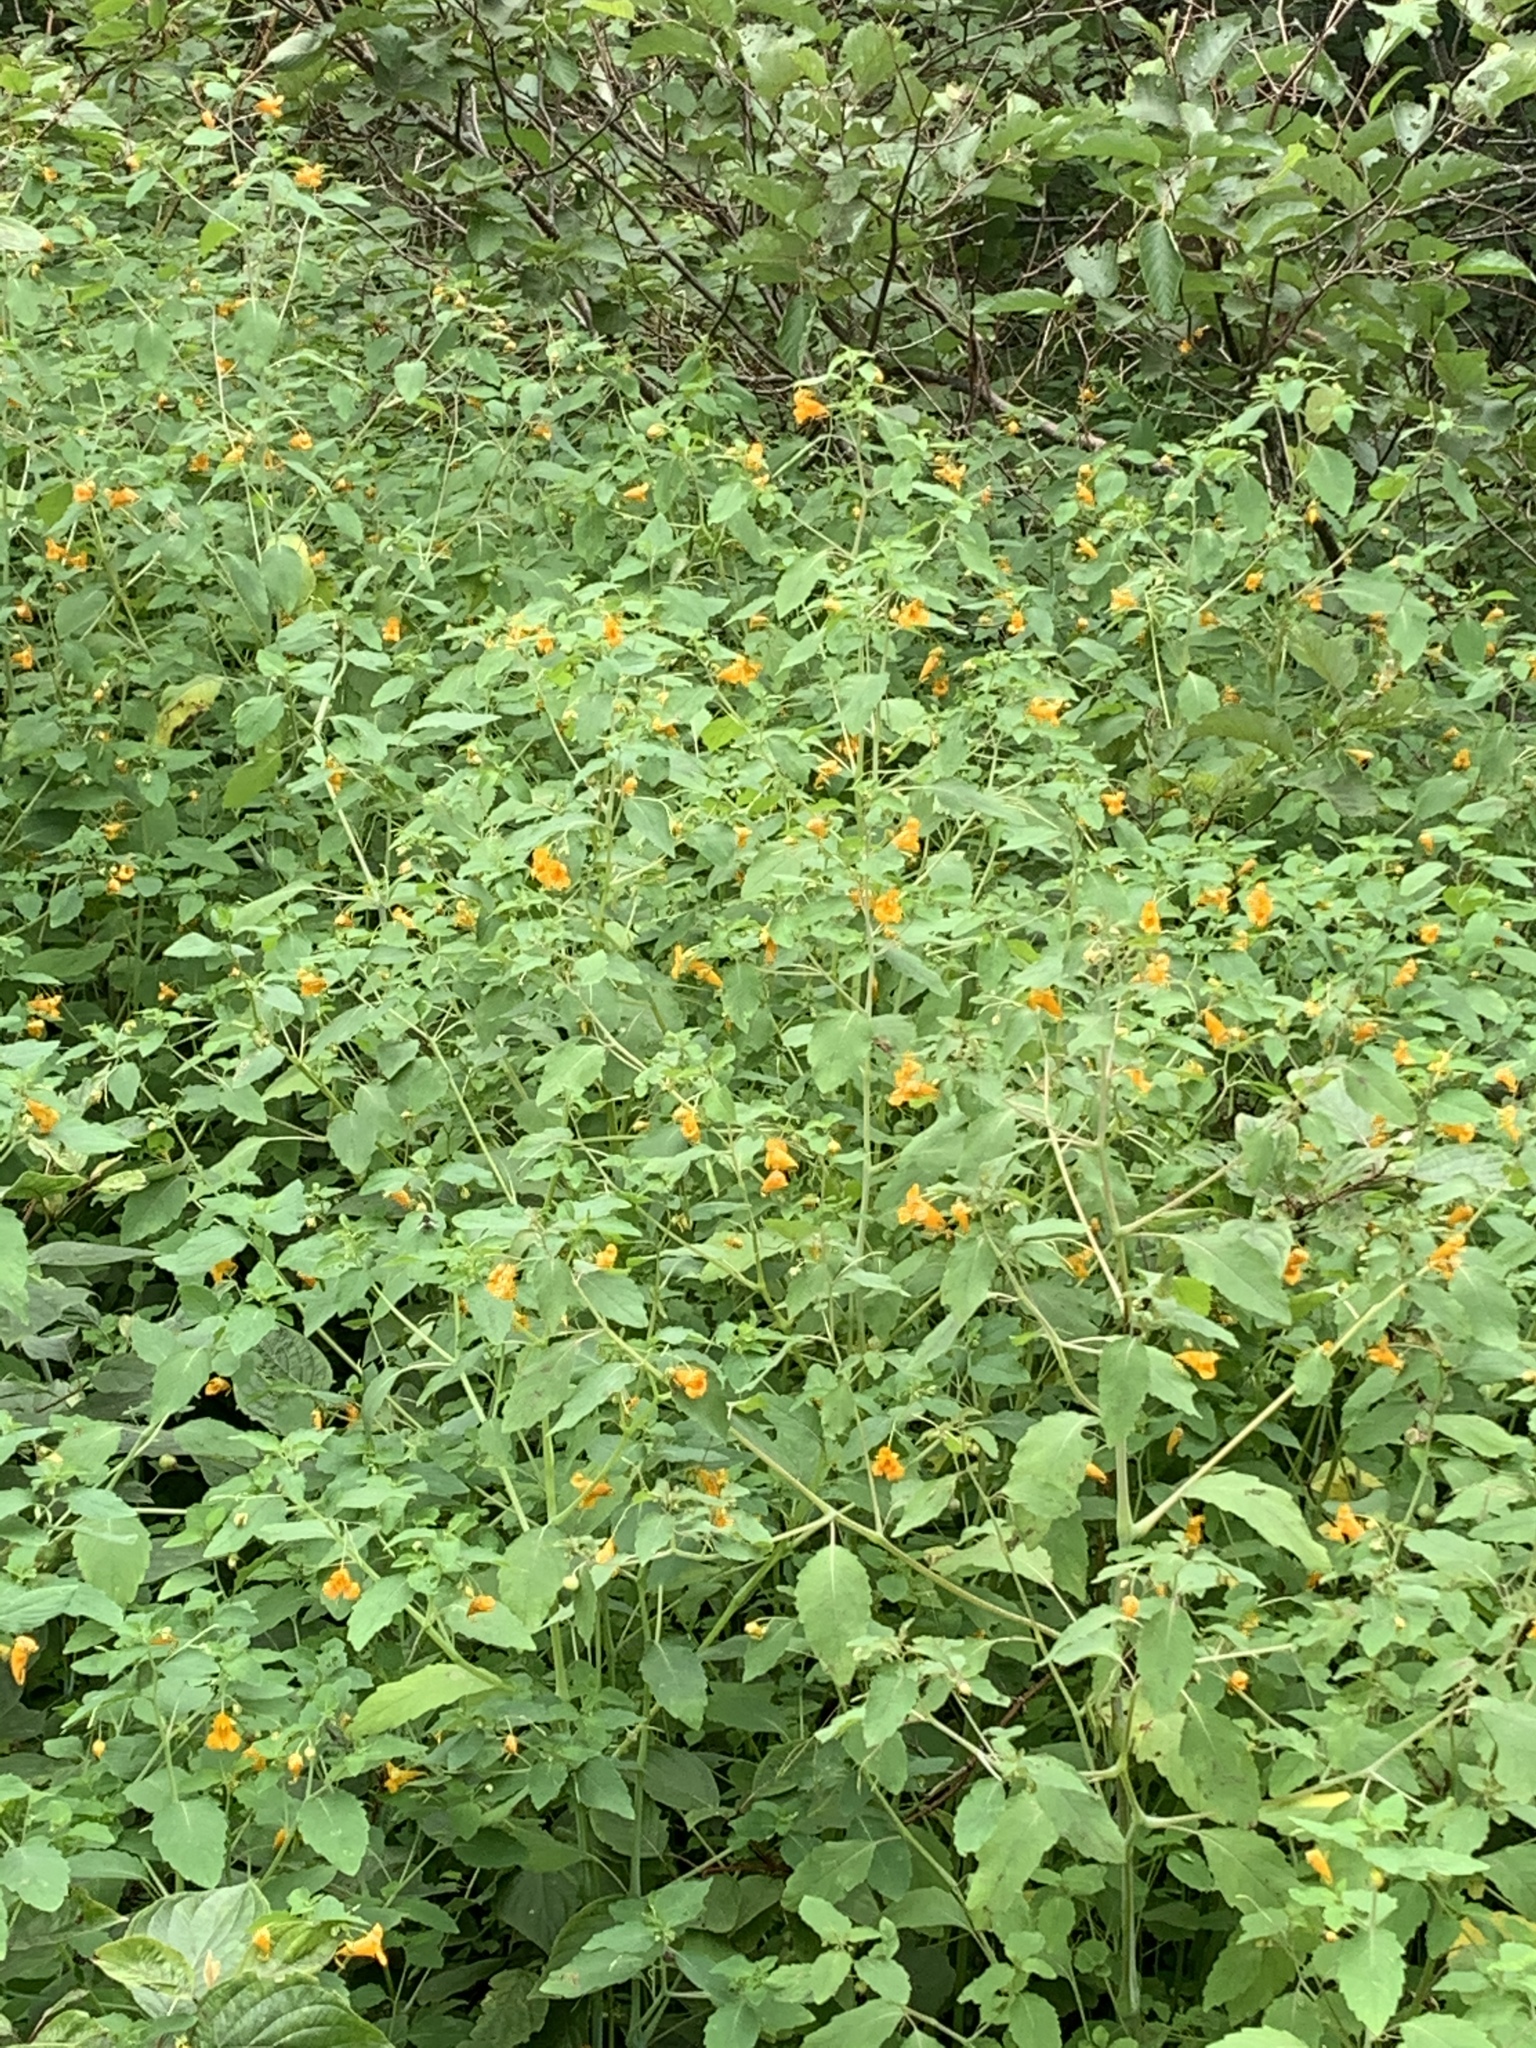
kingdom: Plantae
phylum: Tracheophyta
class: Magnoliopsida
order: Ericales
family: Balsaminaceae
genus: Impatiens
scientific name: Impatiens capensis
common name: Orange balsam
